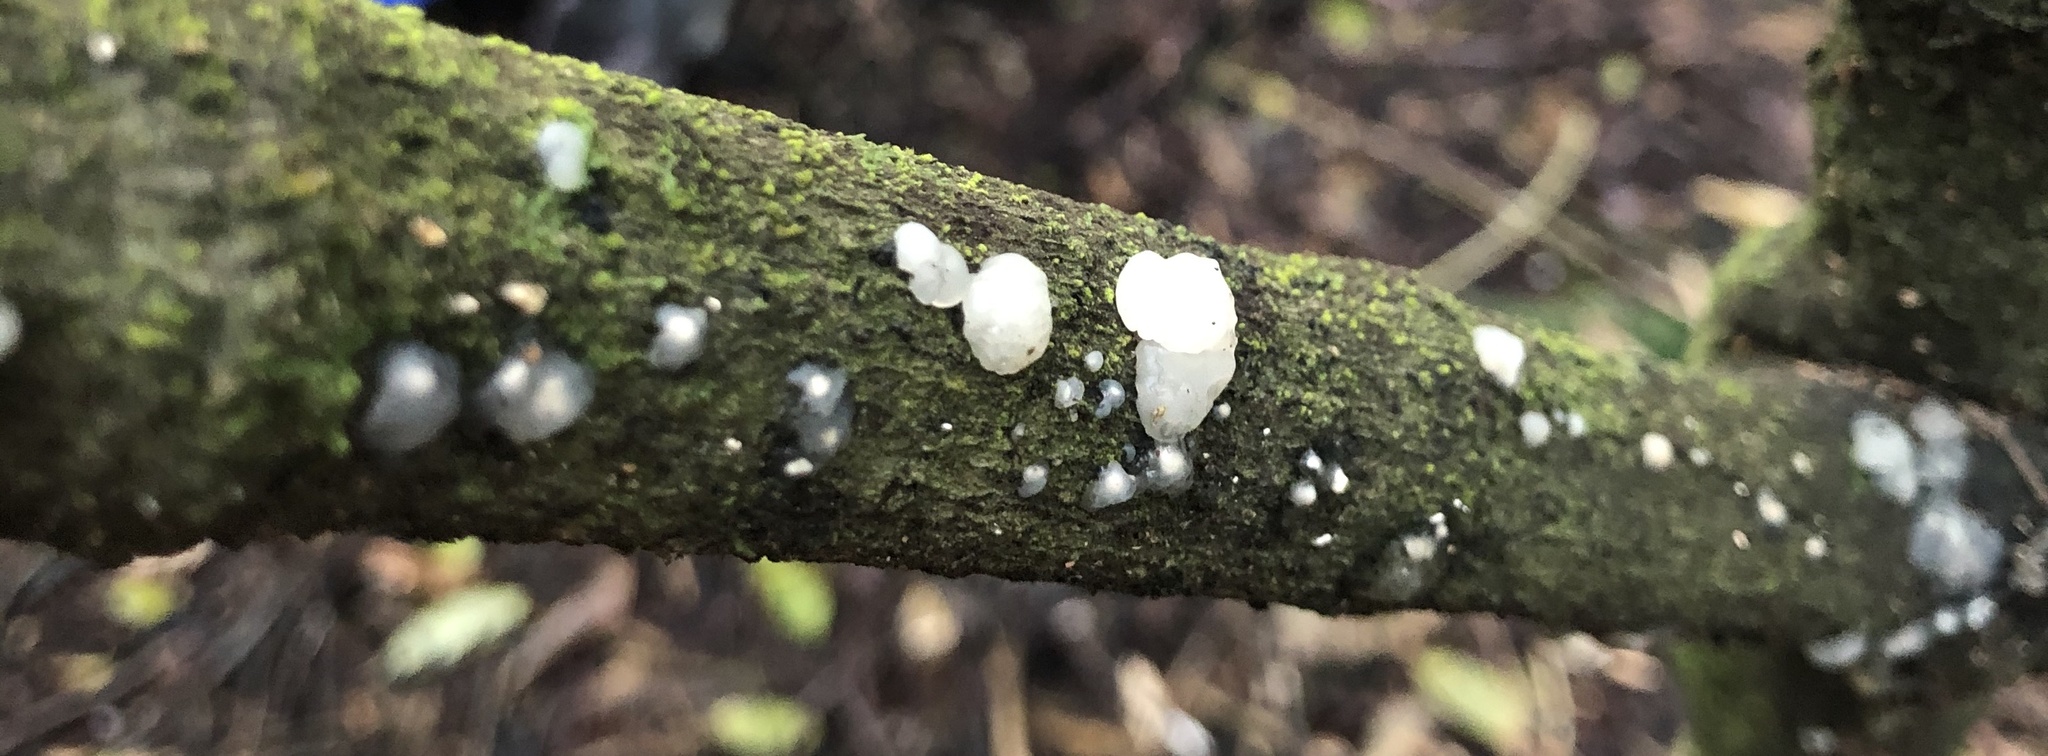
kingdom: Fungi
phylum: Basidiomycota
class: Agaricomycetes
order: Auriculariales
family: Hyaloriaceae
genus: Myxarium
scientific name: Myxarium nucleatum
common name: Crystal brain fungus
